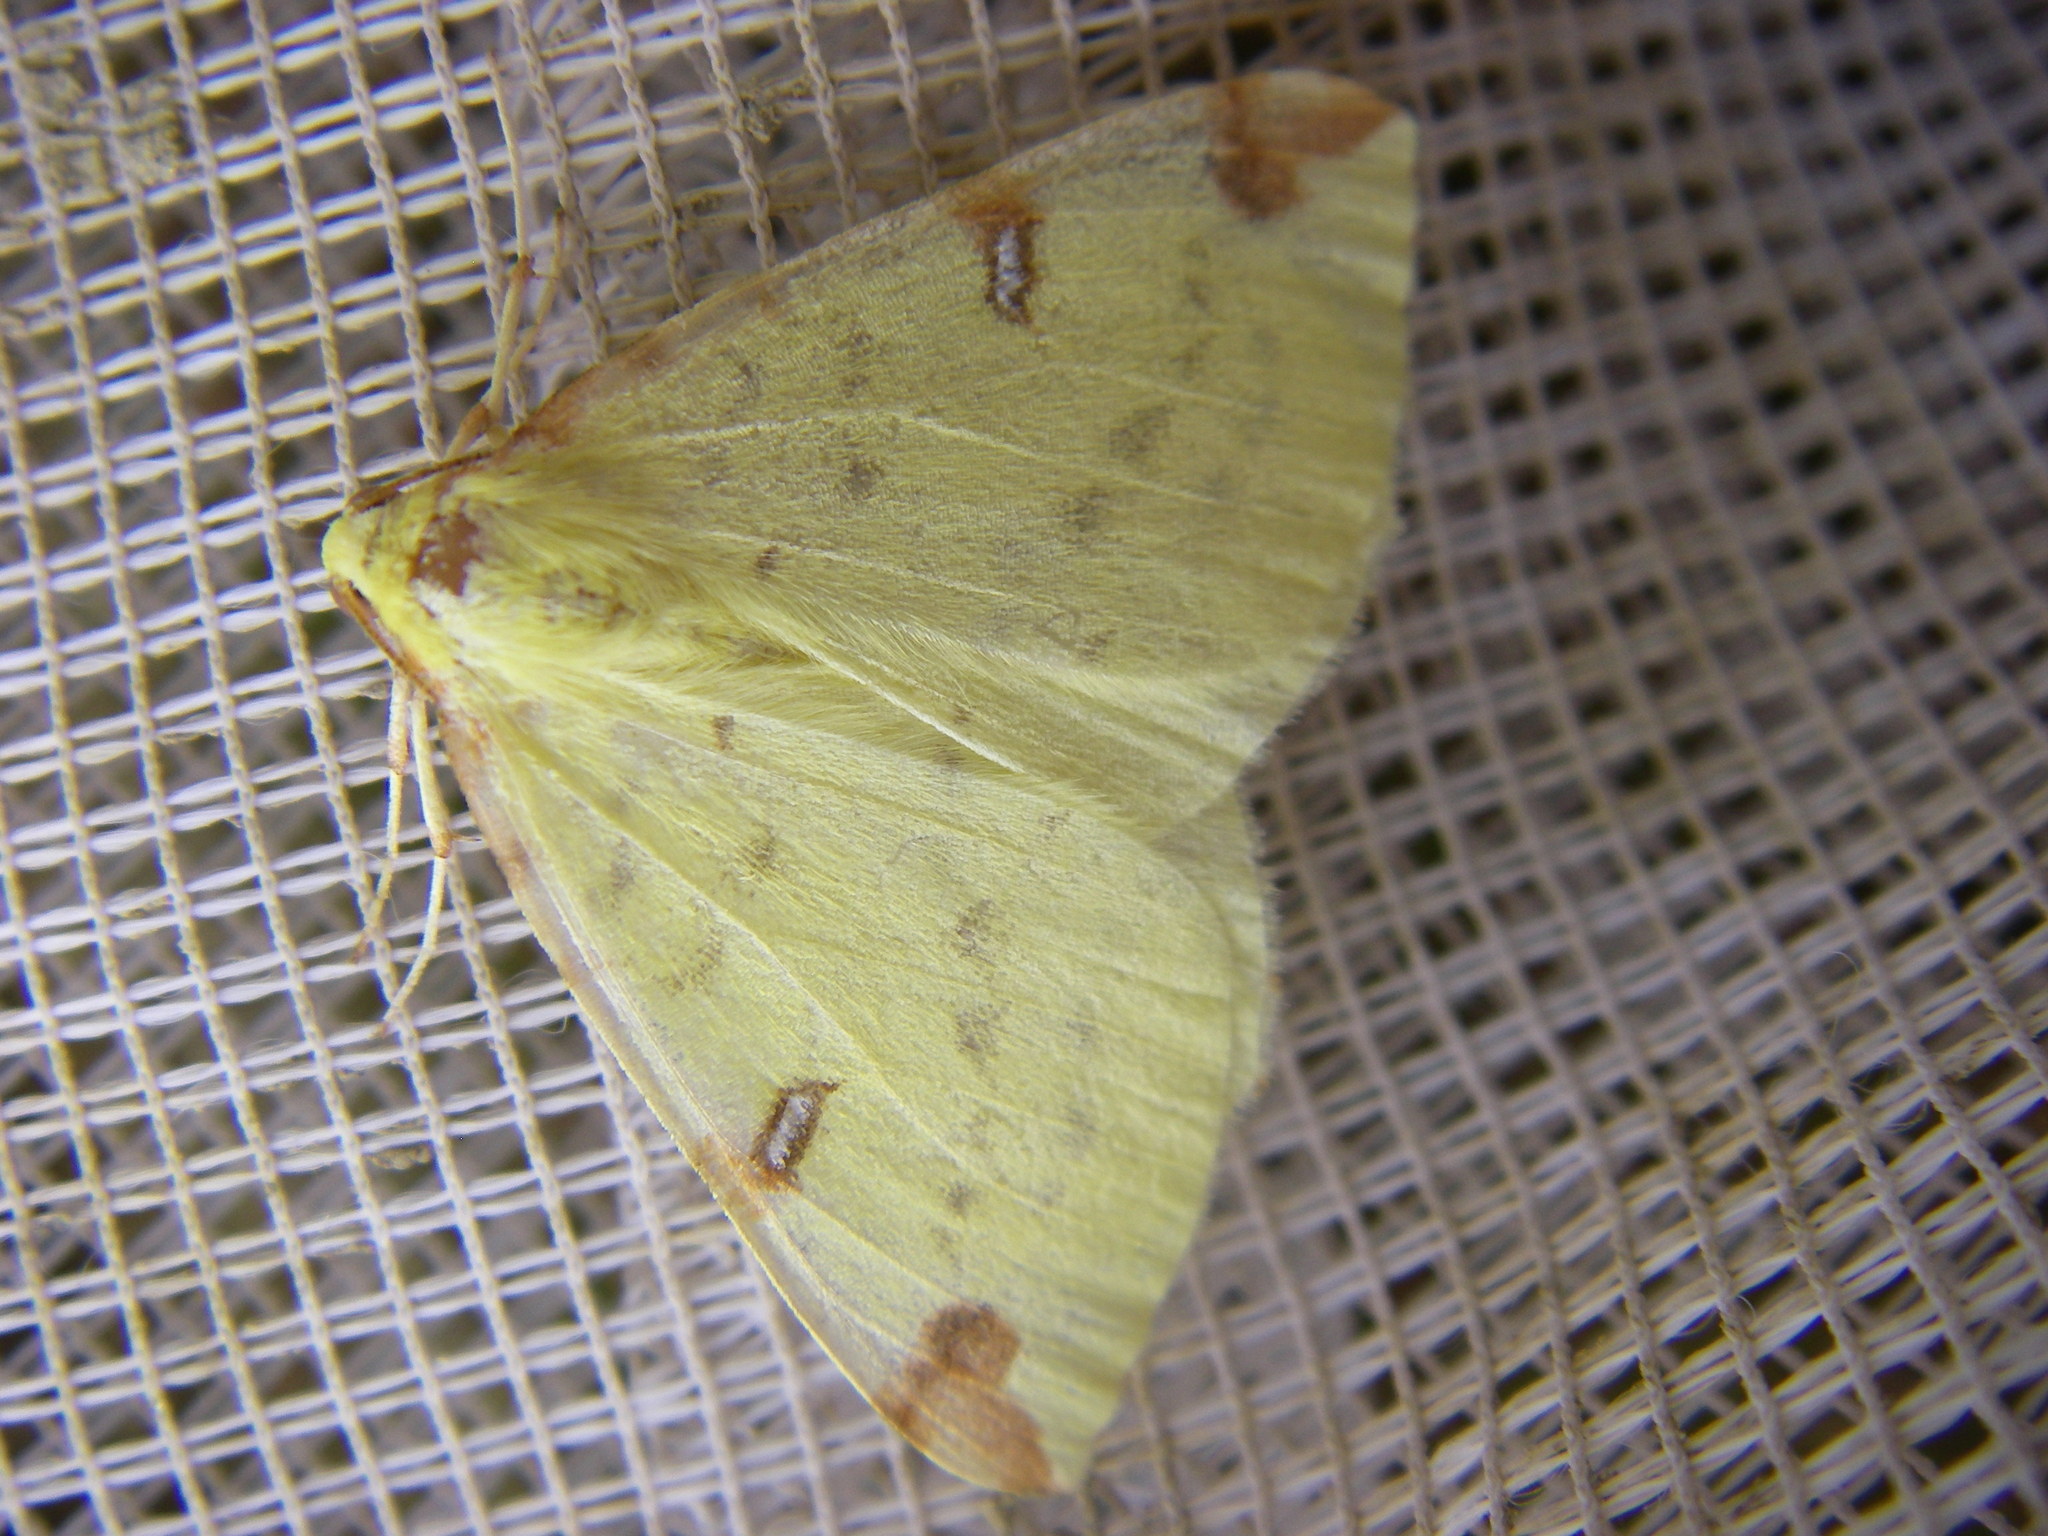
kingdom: Animalia
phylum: Arthropoda
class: Insecta
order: Lepidoptera
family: Geometridae
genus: Opisthograptis
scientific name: Opisthograptis luteolata
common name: Brimstone moth
